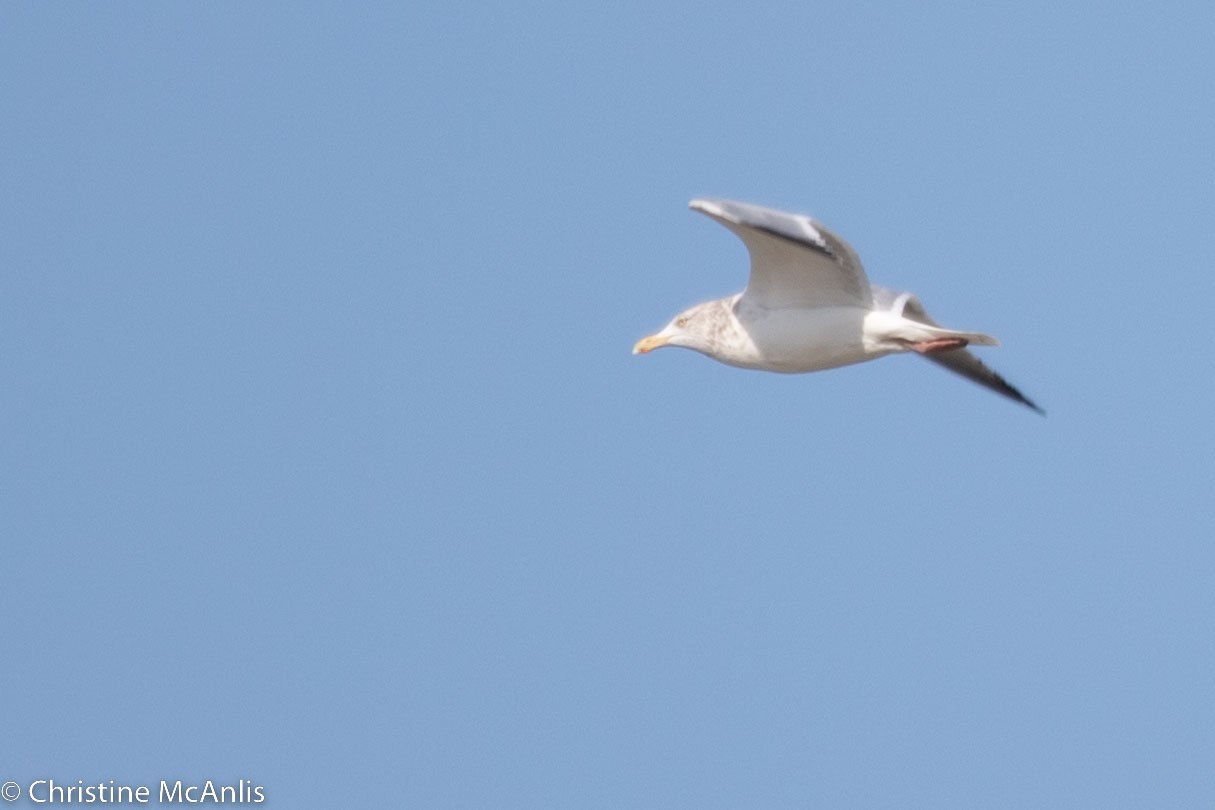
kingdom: Animalia
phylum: Chordata
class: Aves
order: Charadriiformes
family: Laridae
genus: Larus
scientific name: Larus argentatus
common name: Herring gull
